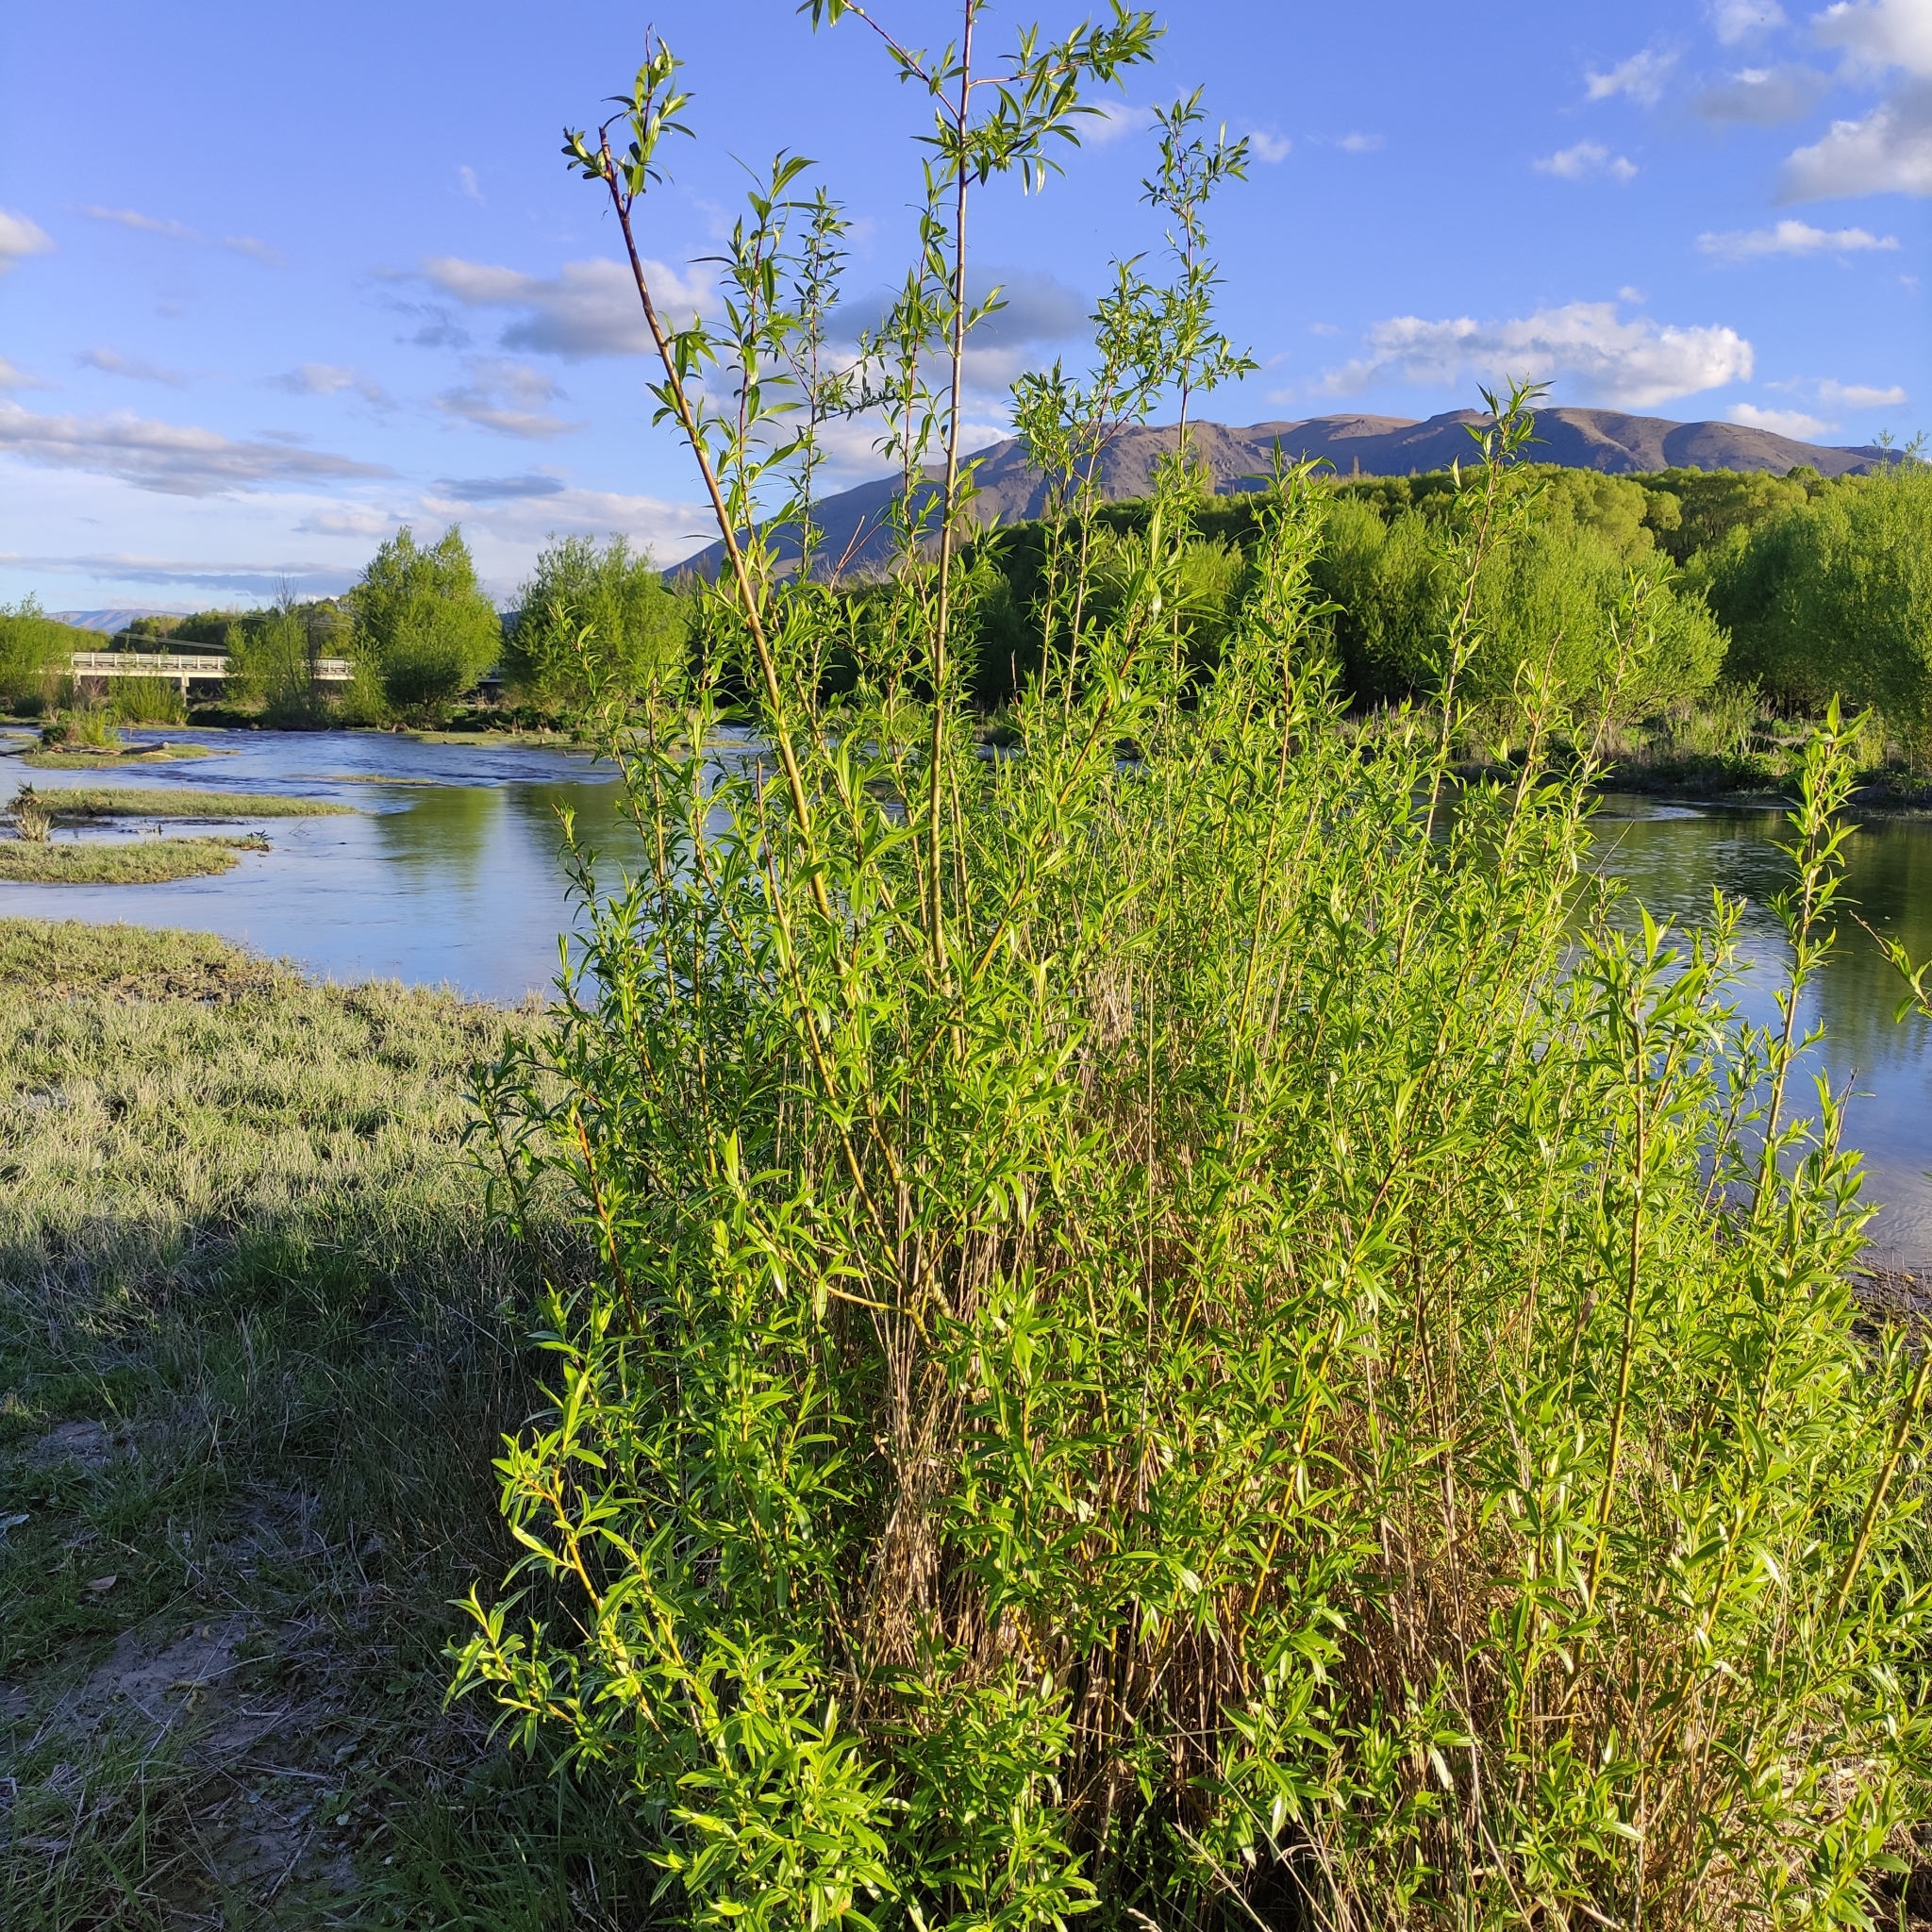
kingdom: Plantae
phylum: Tracheophyta
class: Magnoliopsida
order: Malpighiales
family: Salicaceae
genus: Salix
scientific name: Salix fragilis
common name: Crack willow
